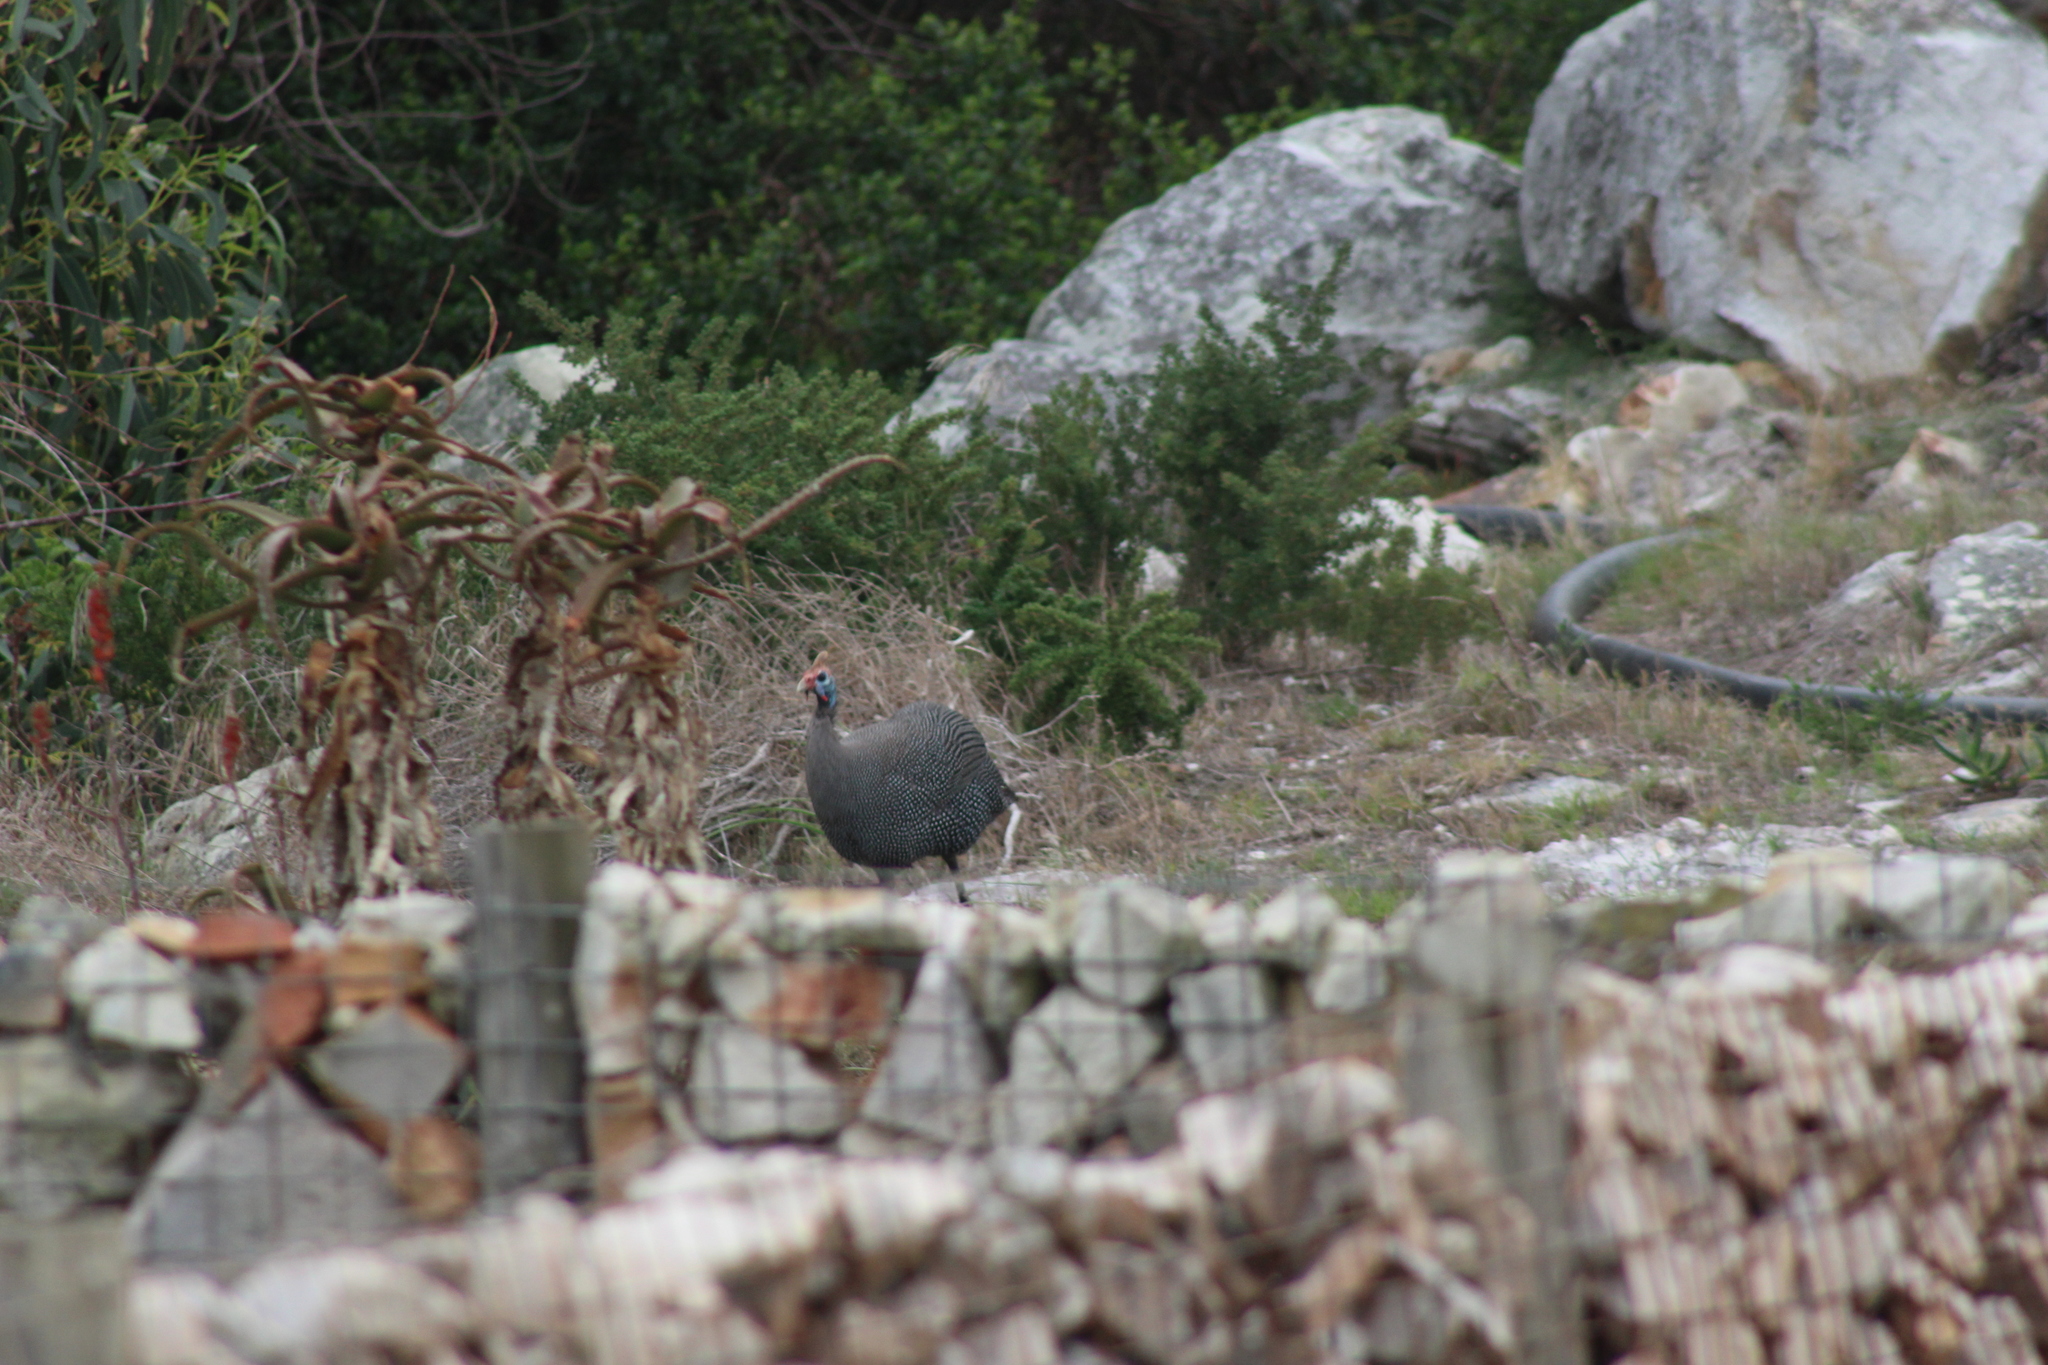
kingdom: Animalia
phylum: Chordata
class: Aves
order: Galliformes
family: Numididae
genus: Numida
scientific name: Numida meleagris
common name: Helmeted guineafowl
